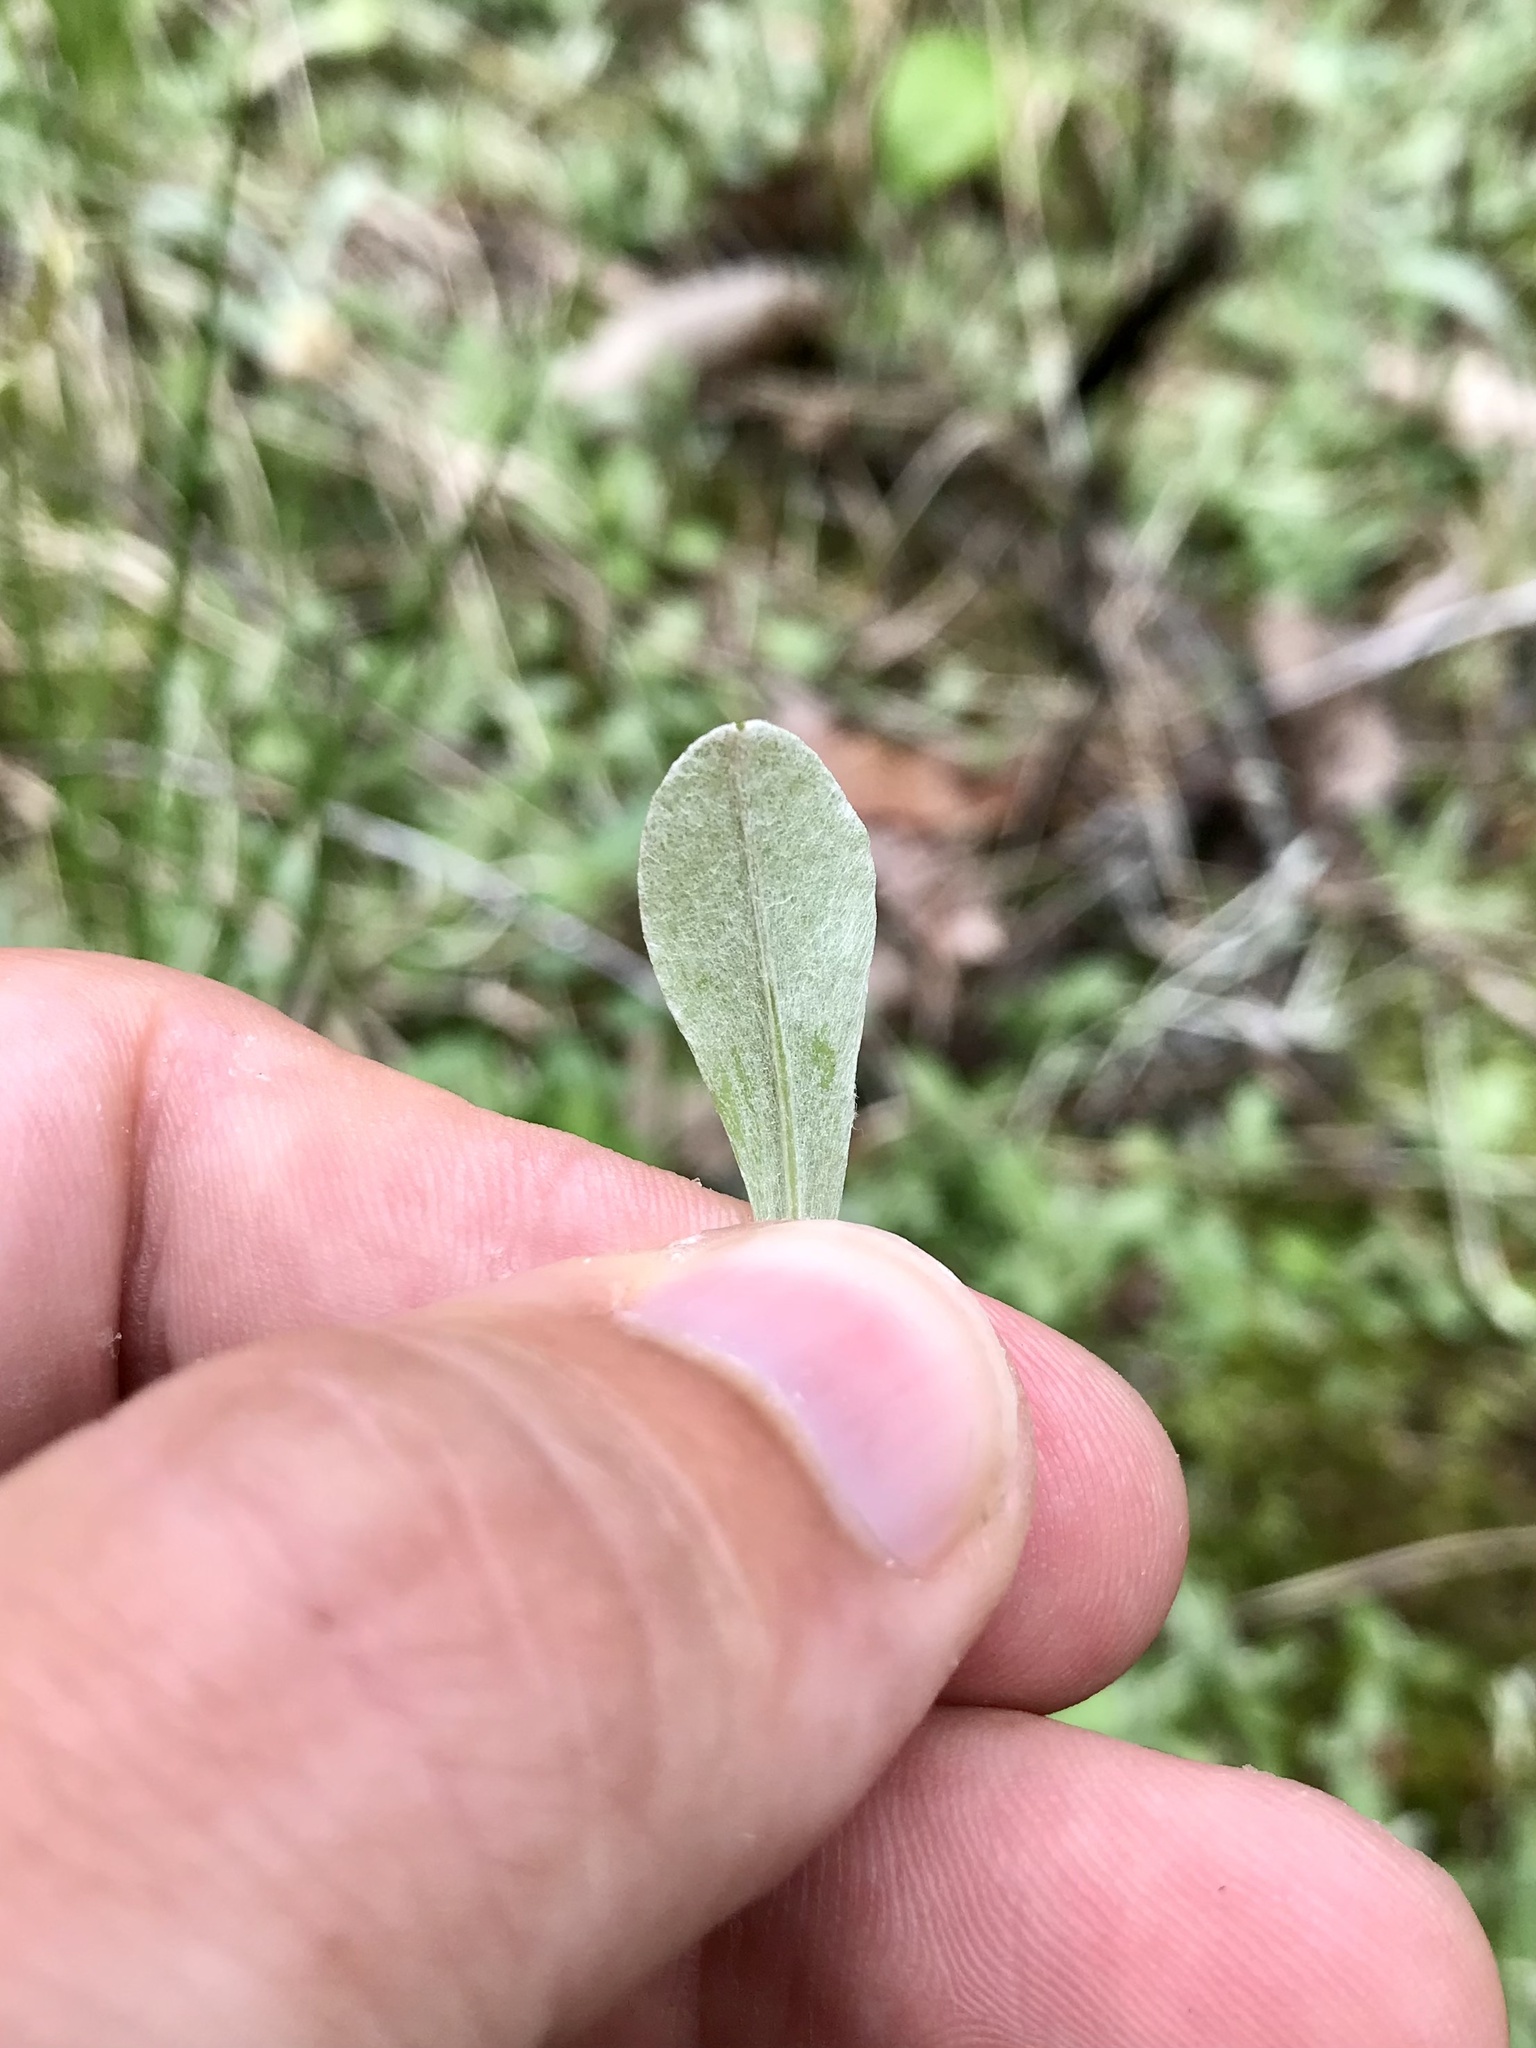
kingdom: Plantae
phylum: Tracheophyta
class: Magnoliopsida
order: Asterales
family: Asteraceae
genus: Antennaria
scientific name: Antennaria neglecta
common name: Field pussytoes
